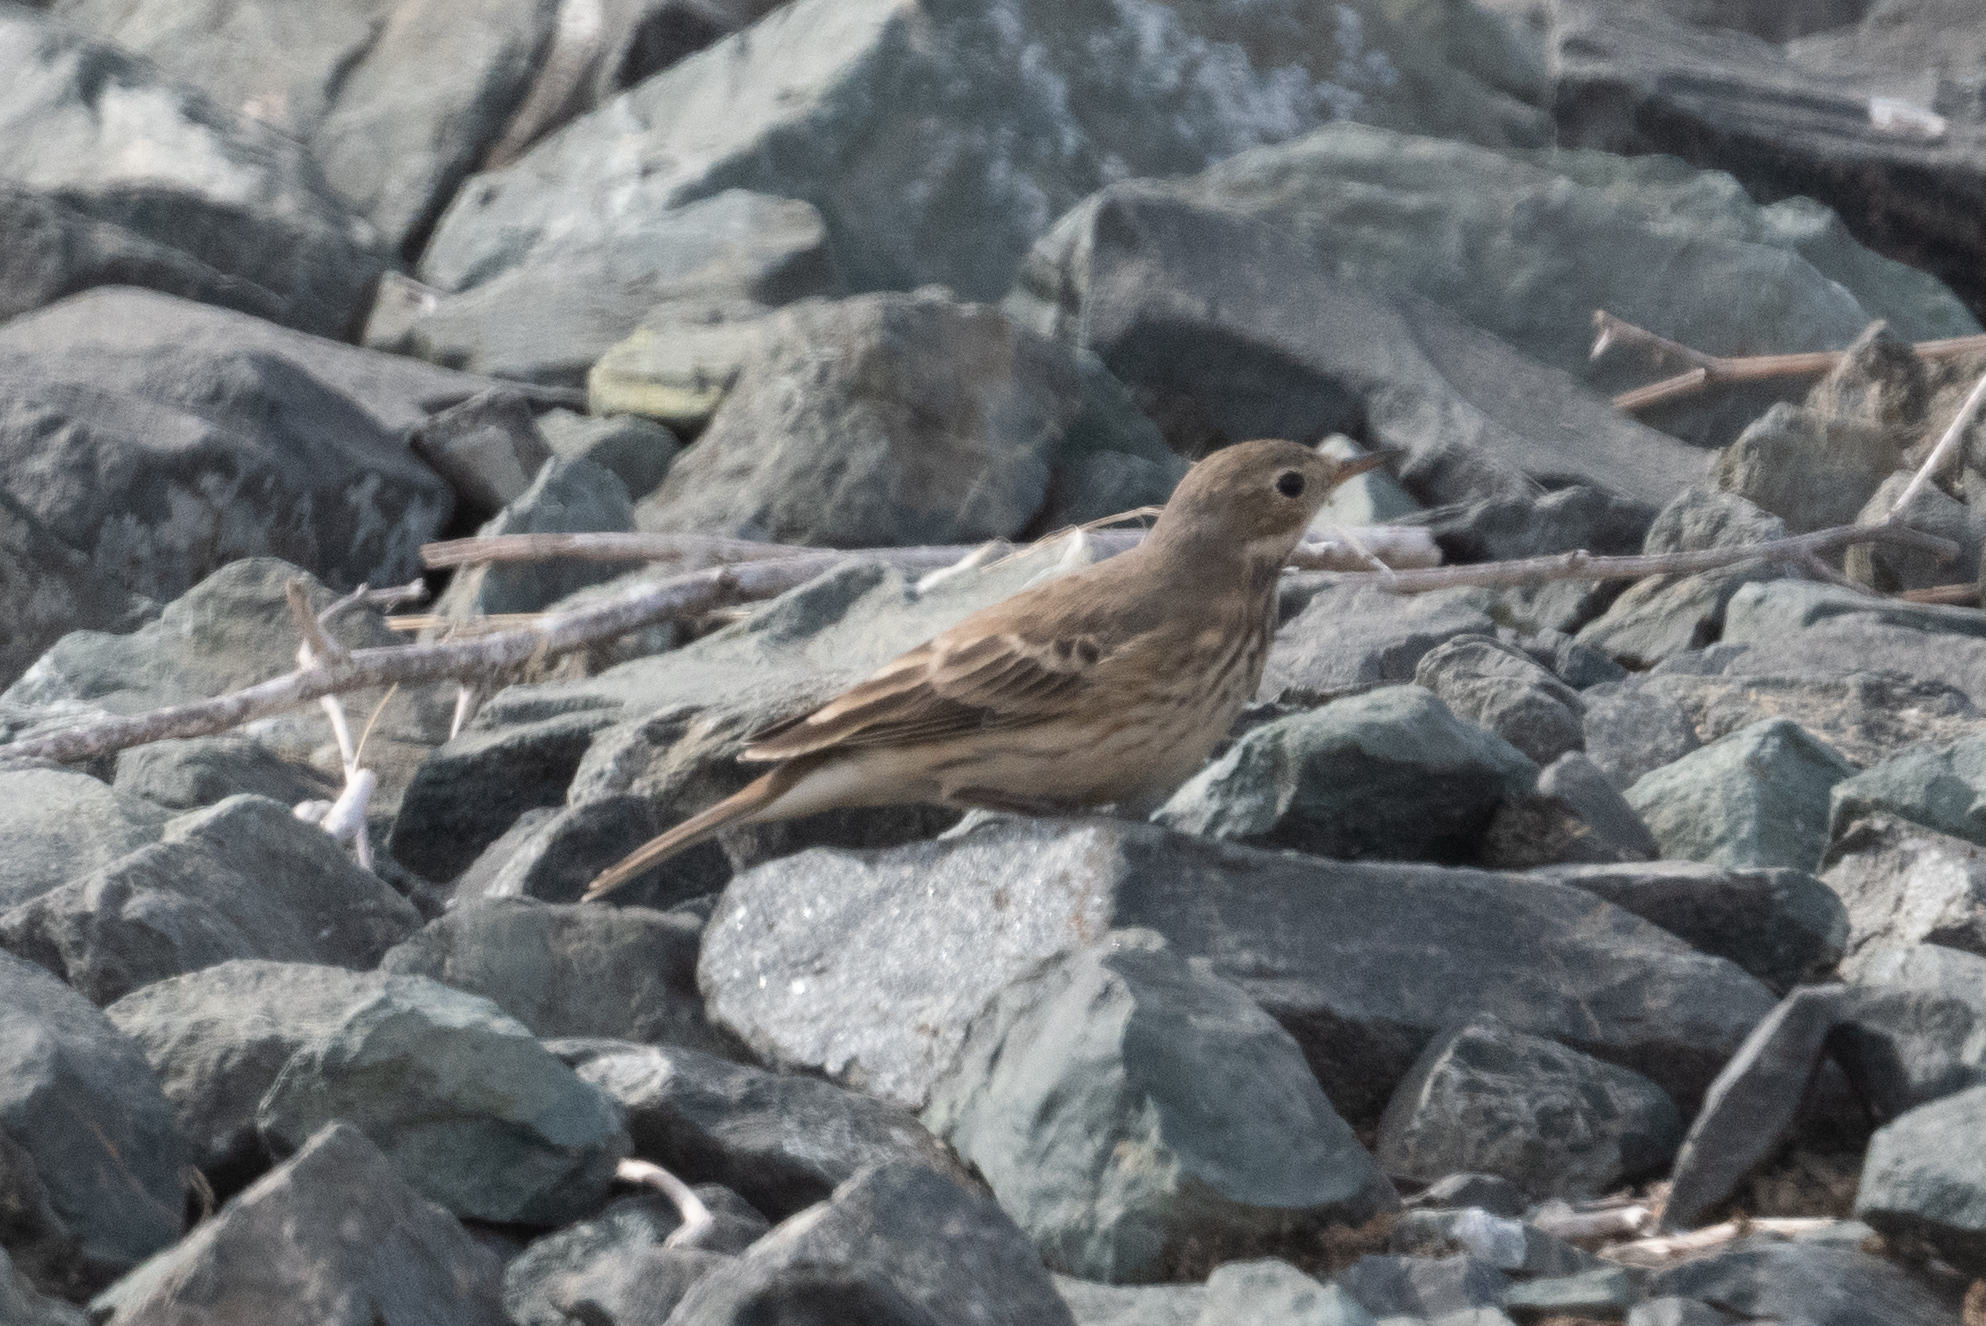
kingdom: Animalia
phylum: Chordata
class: Aves
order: Passeriformes
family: Motacillidae
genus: Anthus
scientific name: Anthus rubescens
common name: Buff-bellied pipit
